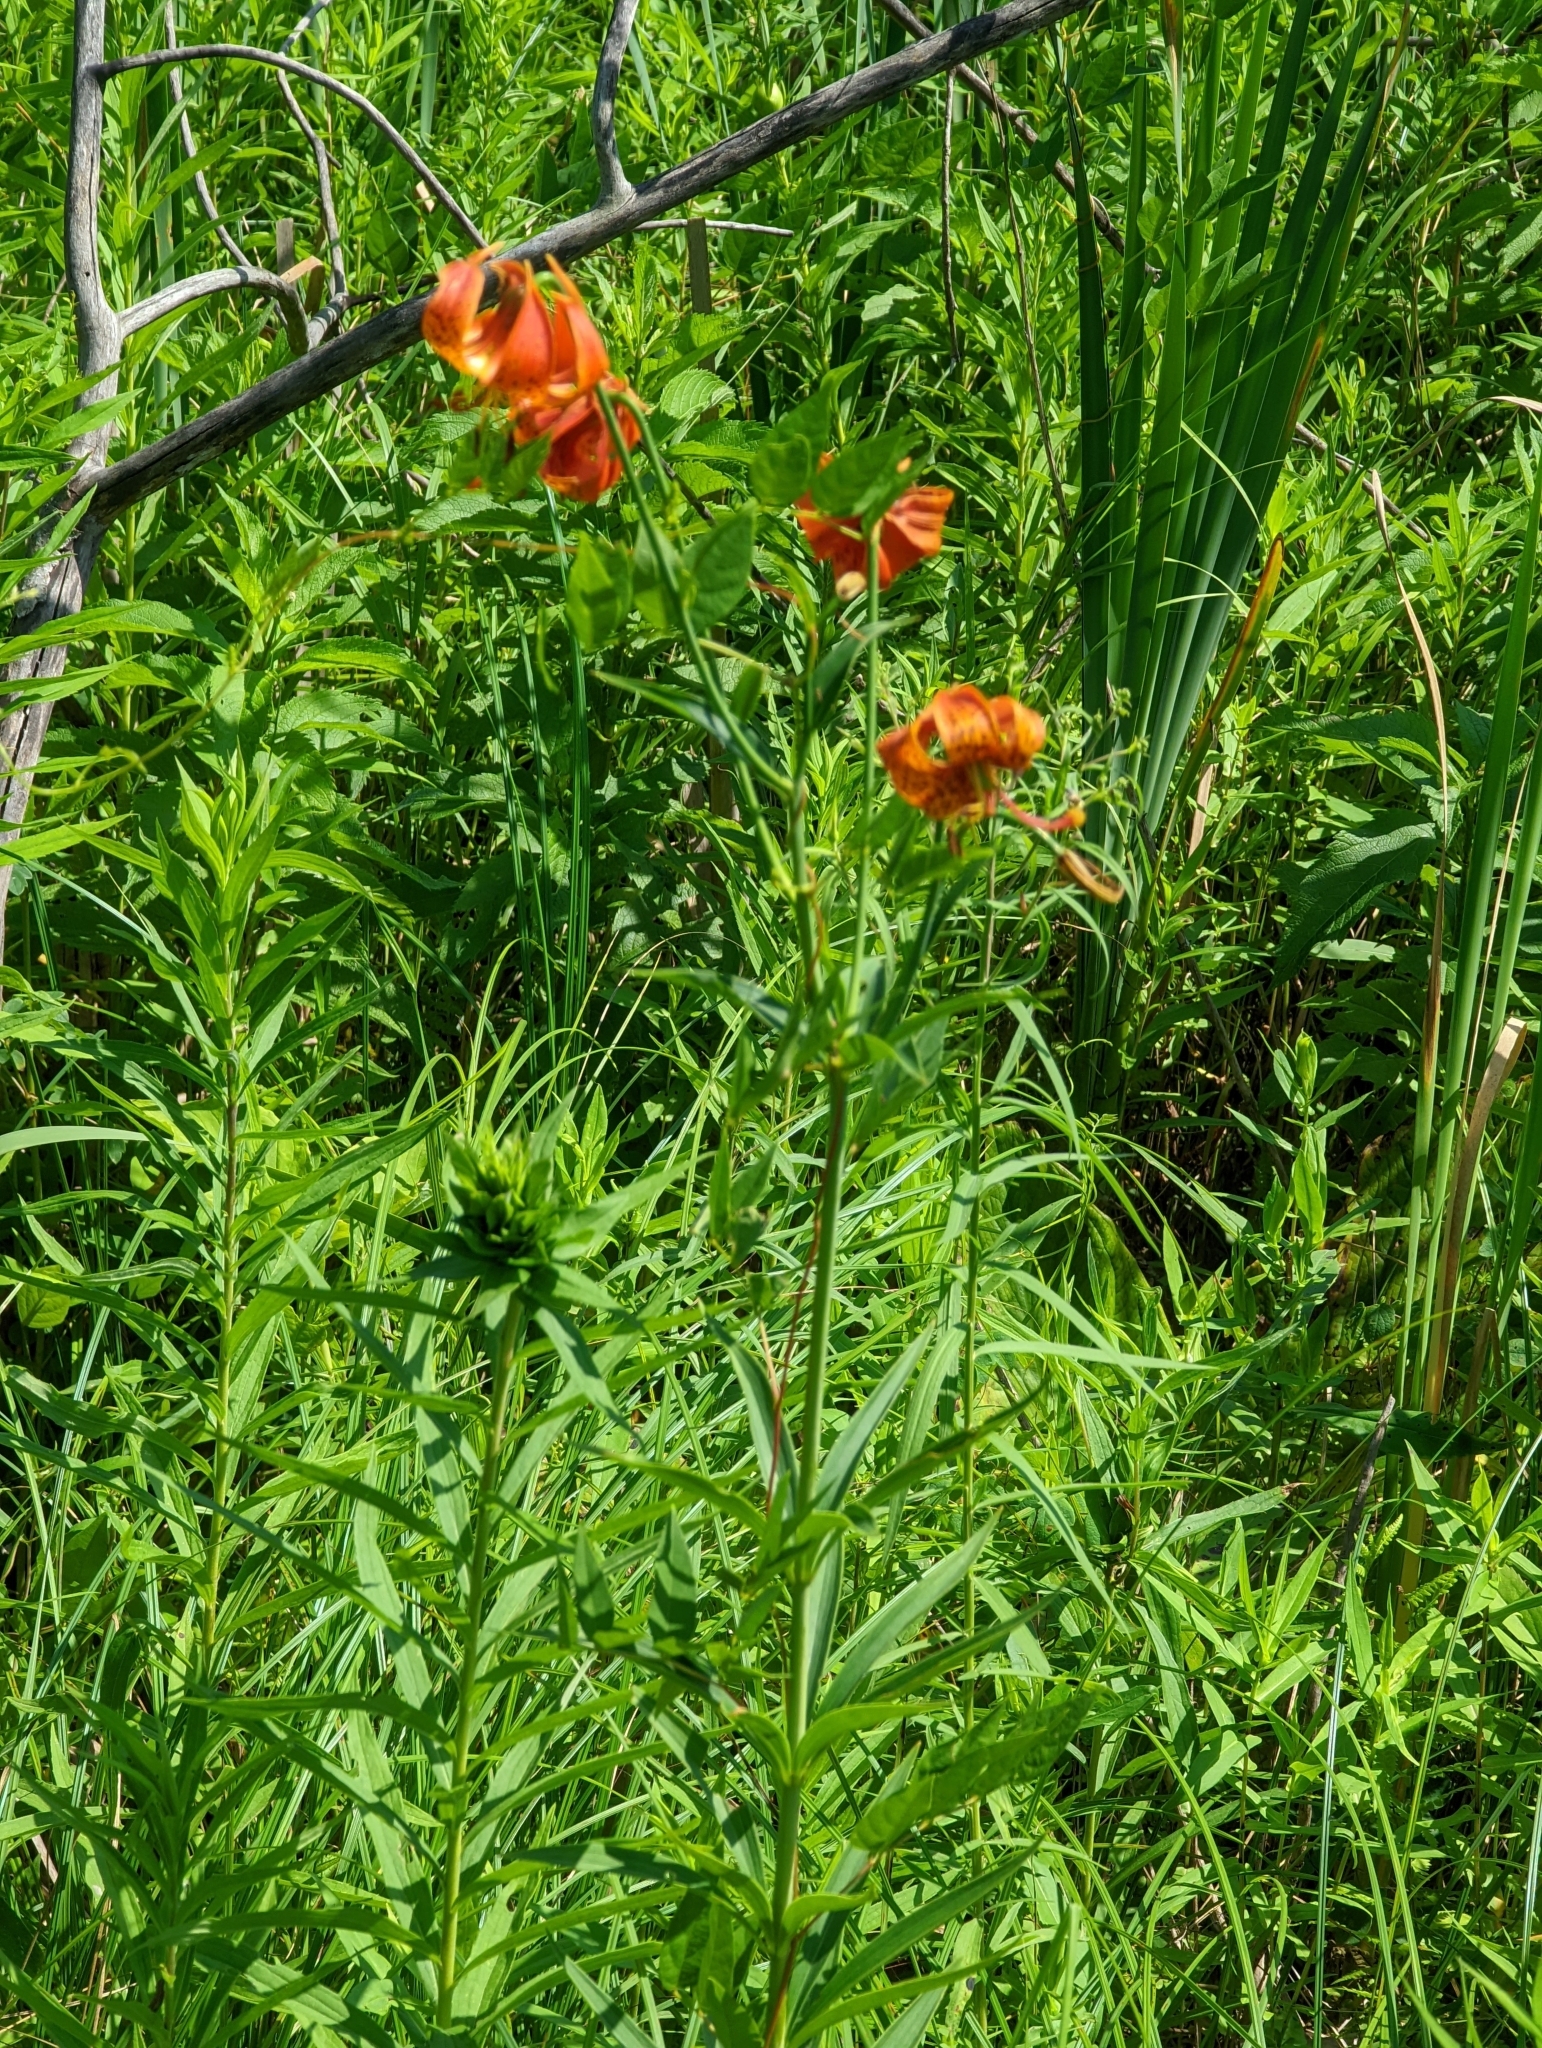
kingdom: Plantae
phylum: Tracheophyta
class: Liliopsida
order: Liliales
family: Liliaceae
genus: Lilium
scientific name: Lilium michiganense
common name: Michigan lily
